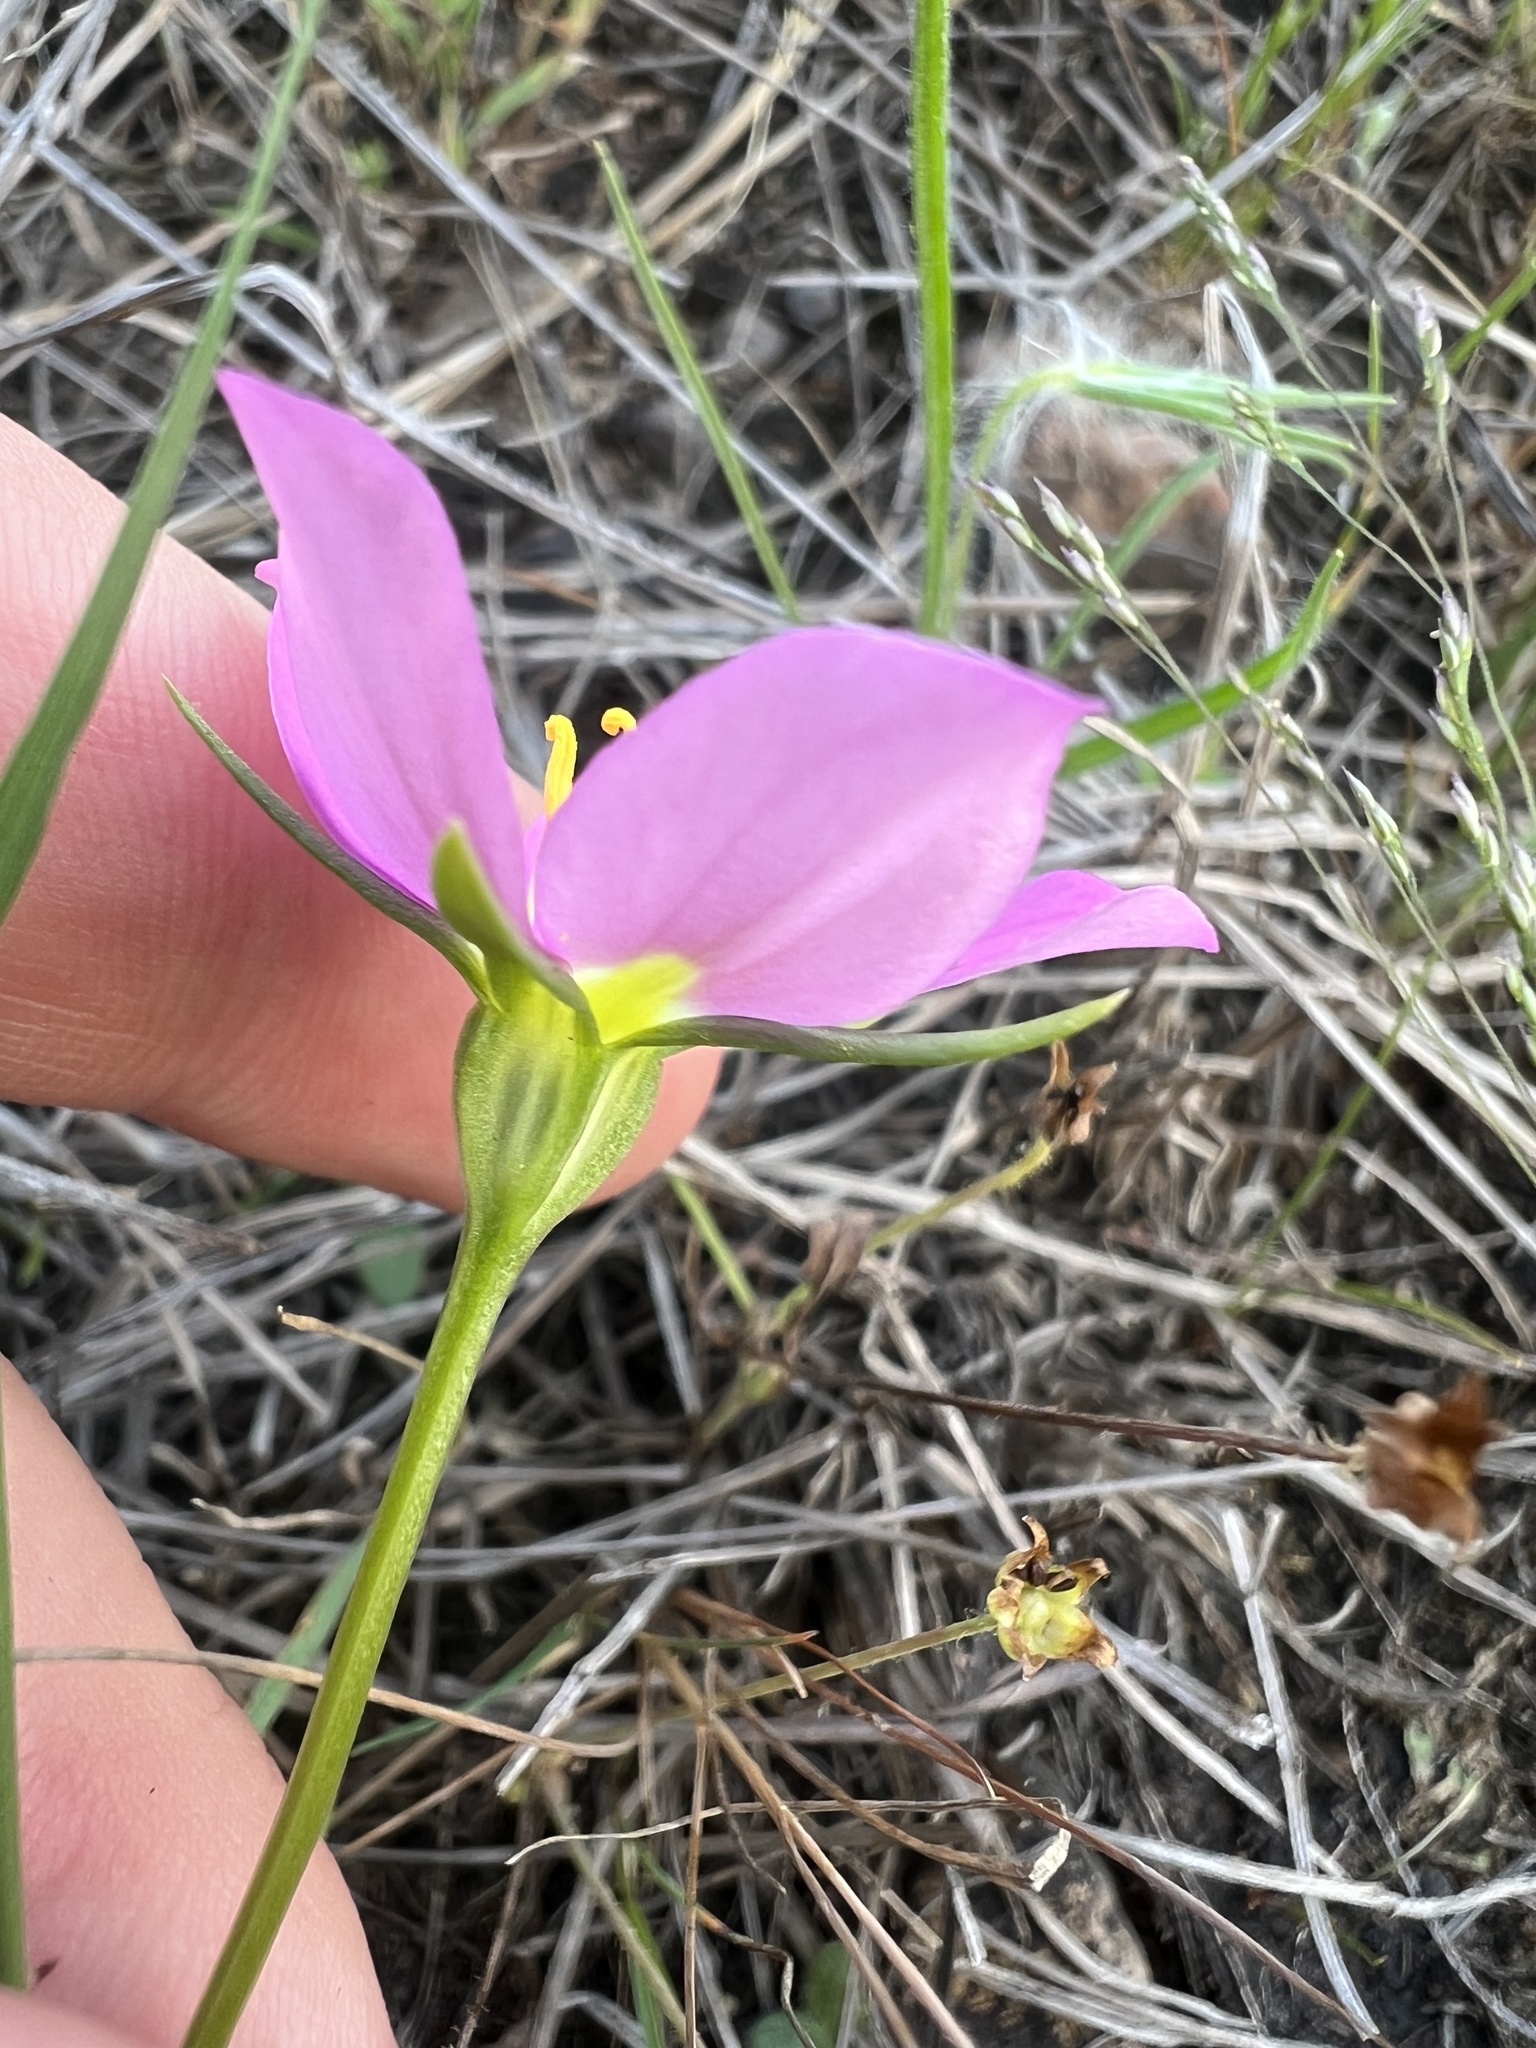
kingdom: Plantae
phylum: Tracheophyta
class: Magnoliopsida
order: Gentianales
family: Gentianaceae
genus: Sabatia
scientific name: Sabatia formosa
